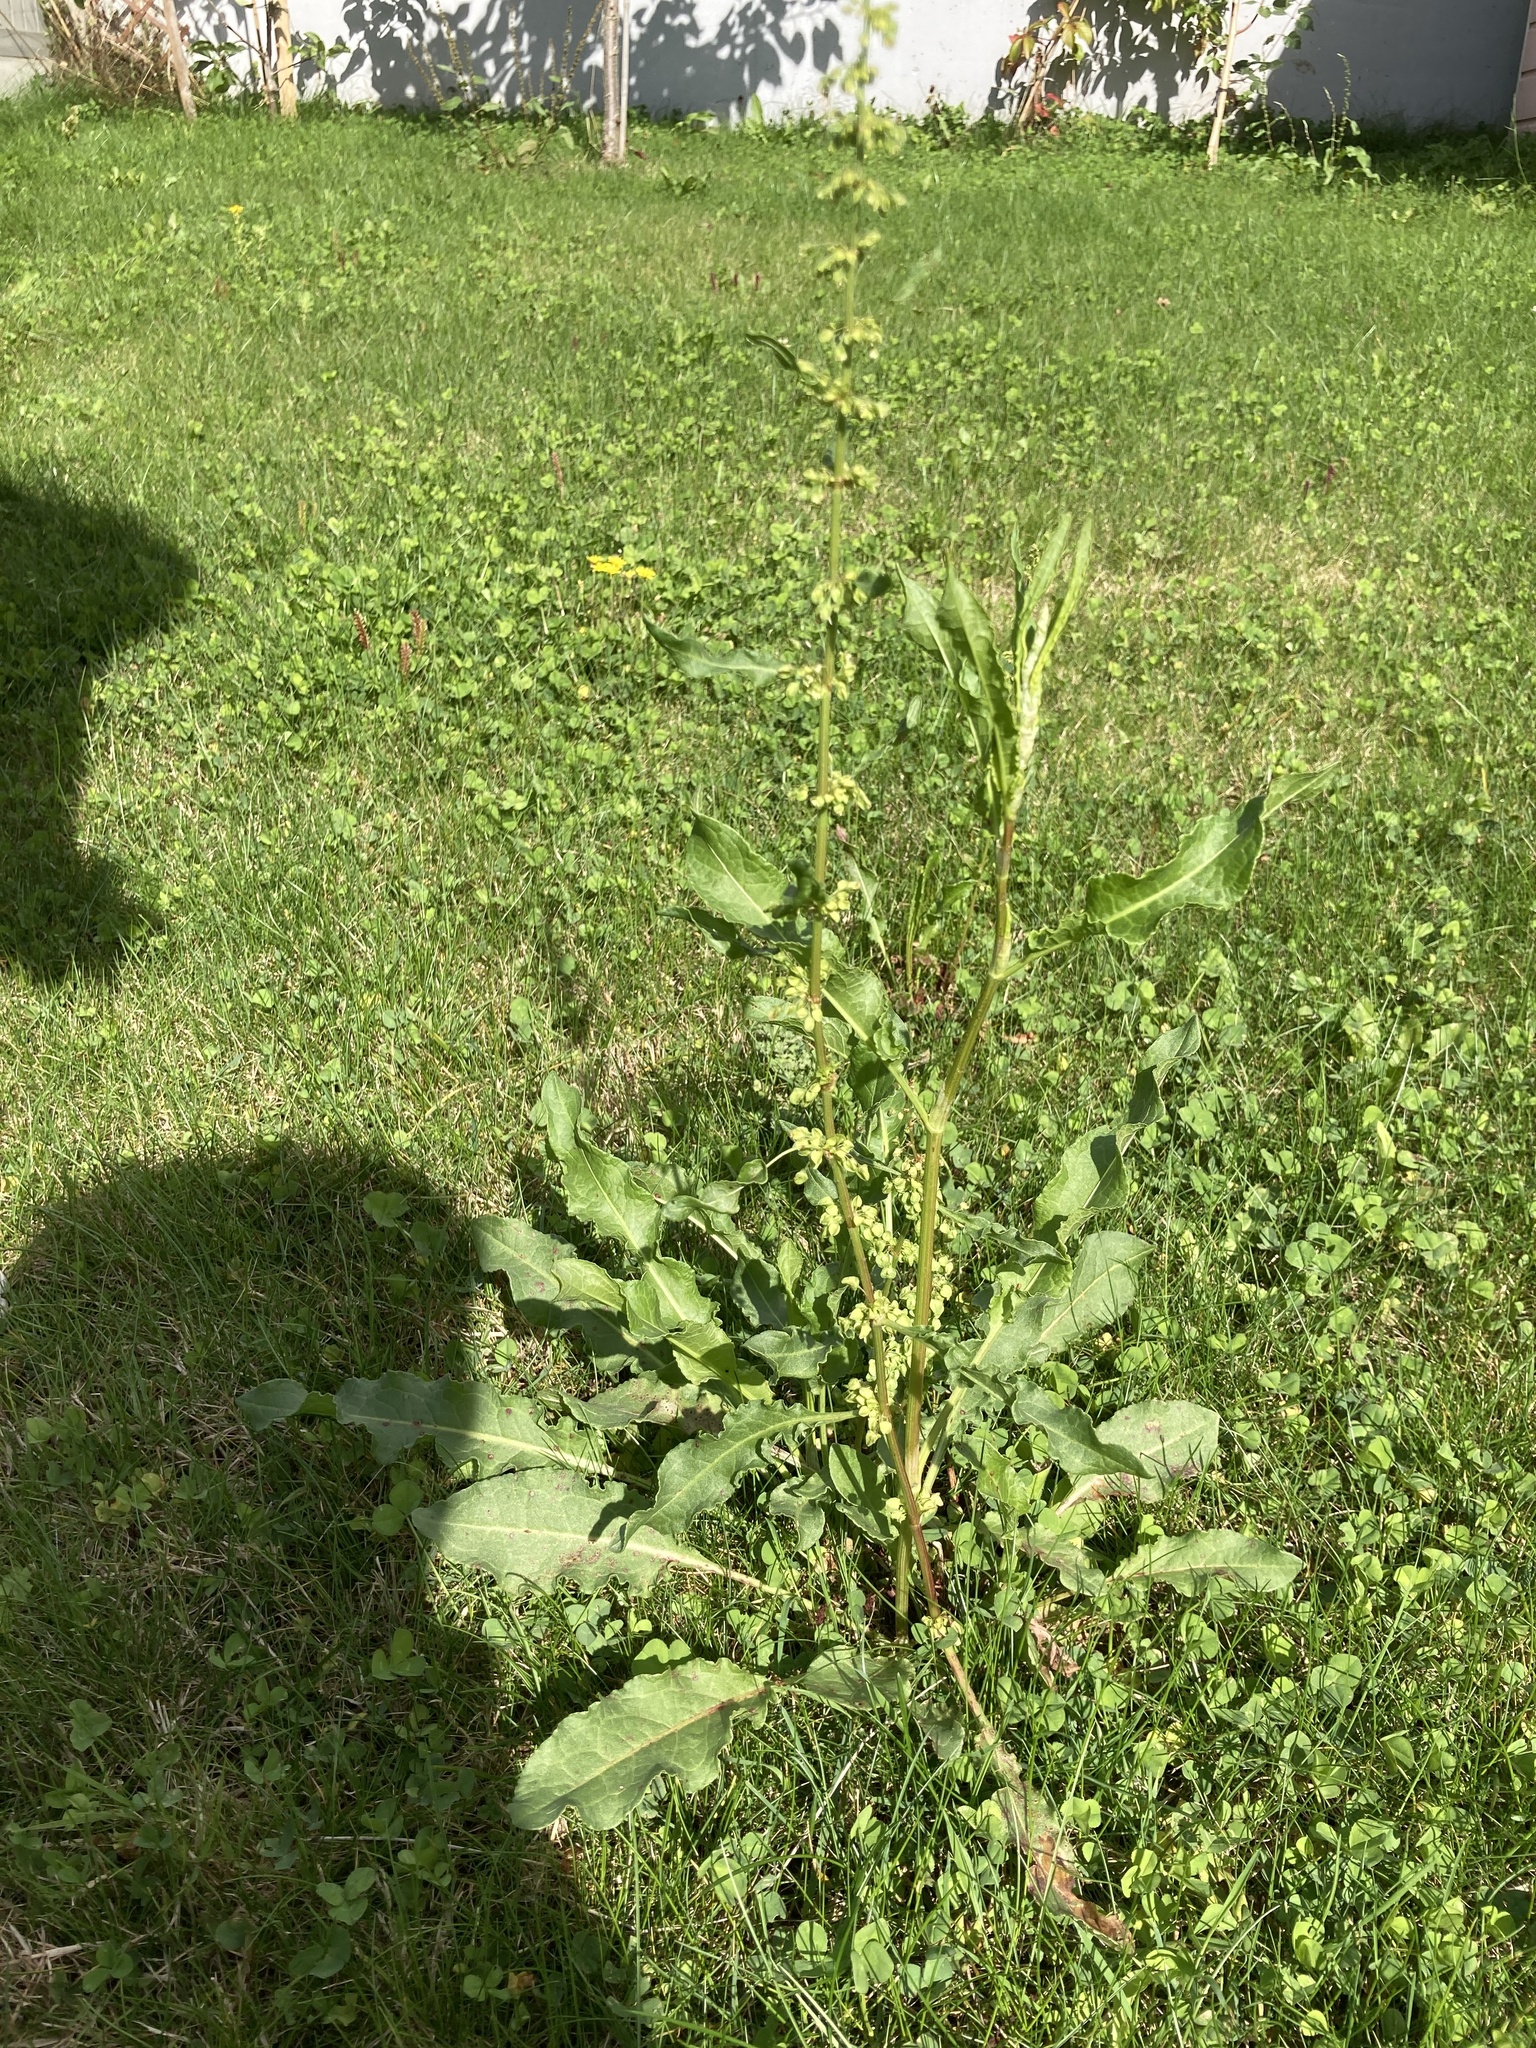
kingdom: Plantae
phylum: Tracheophyta
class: Magnoliopsida
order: Caryophyllales
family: Polygonaceae
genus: Rumex
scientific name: Rumex crispus
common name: Curled dock
